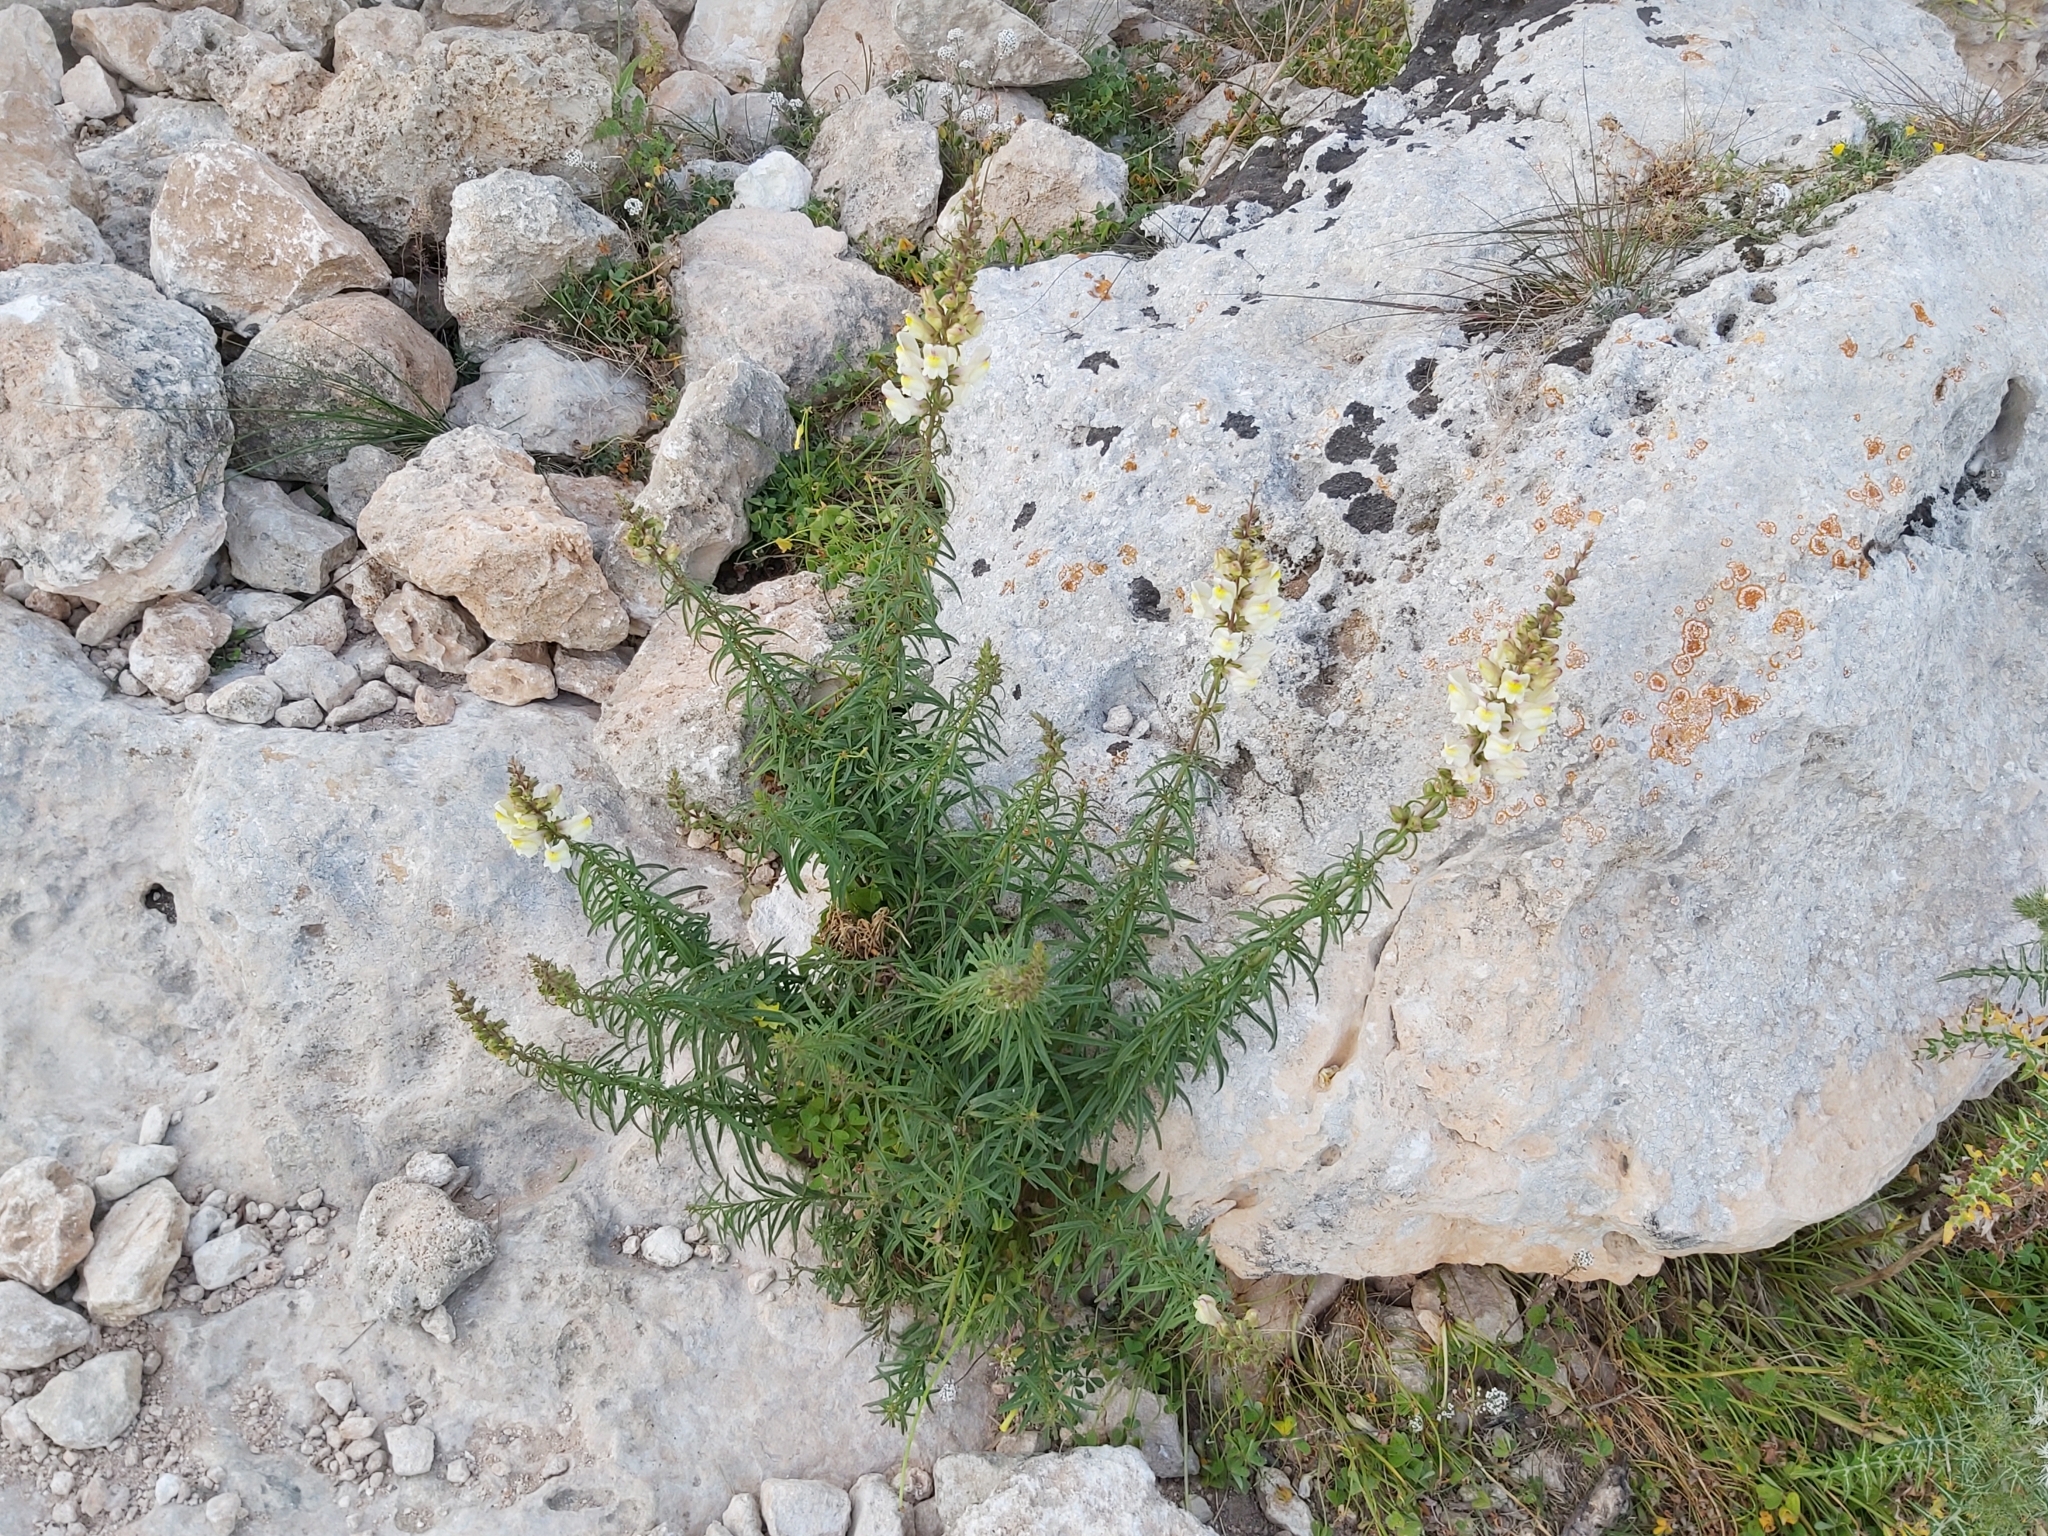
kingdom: Plantae
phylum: Tracheophyta
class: Magnoliopsida
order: Lamiales
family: Plantaginaceae
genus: Antirrhinum
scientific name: Antirrhinum siculum
